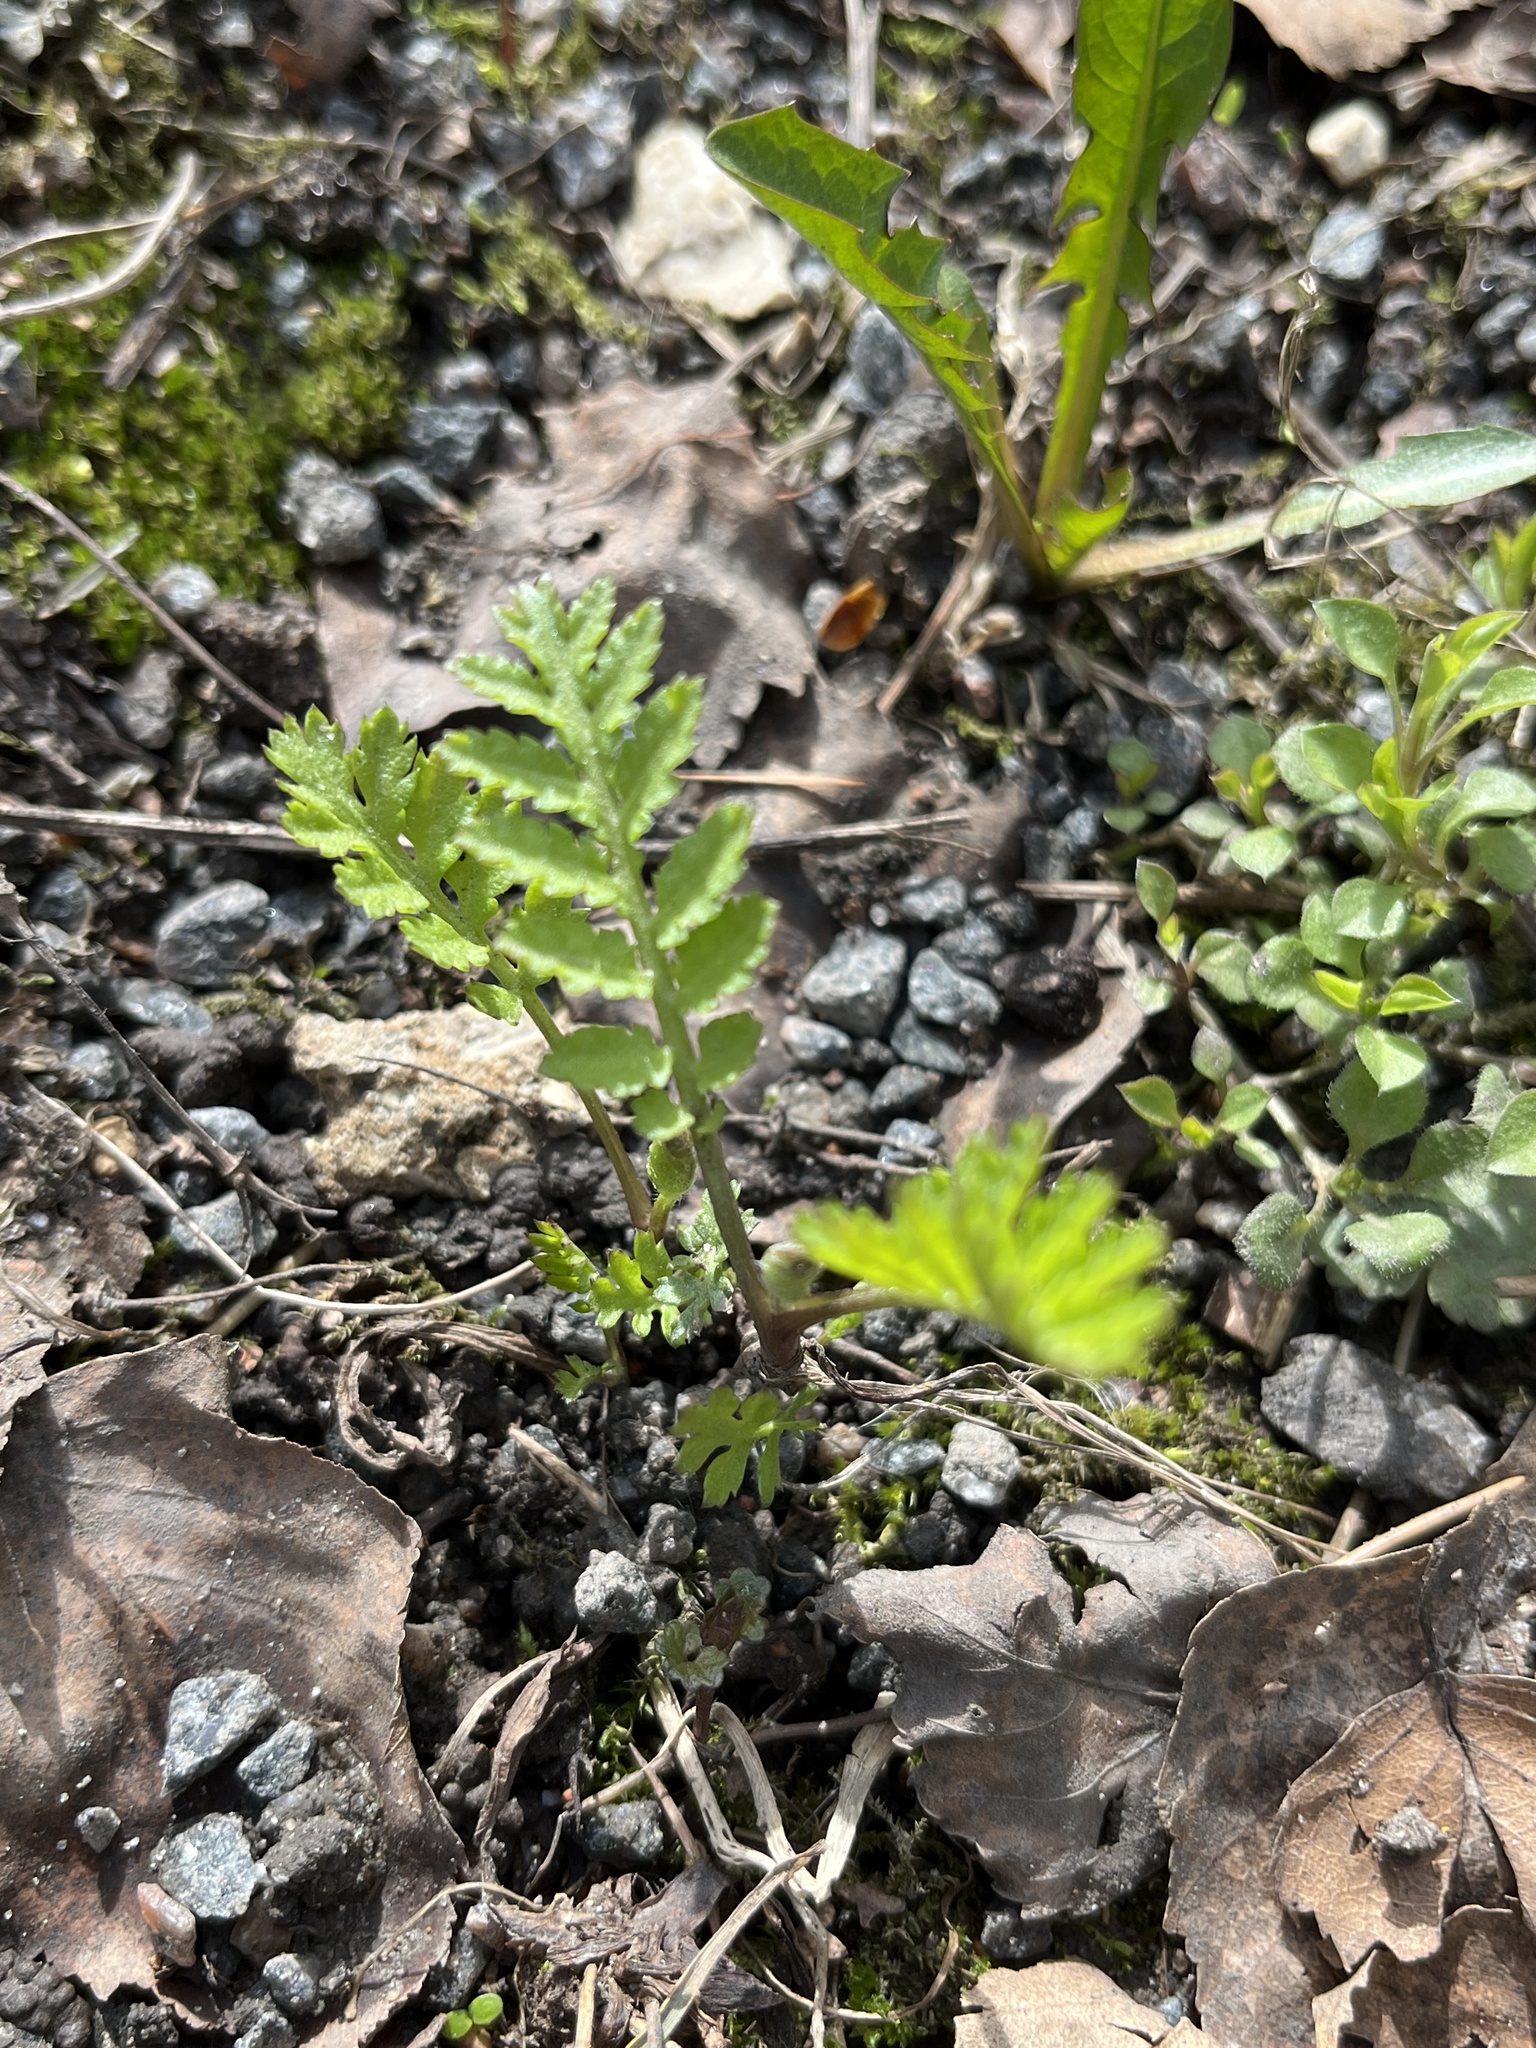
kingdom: Plantae
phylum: Tracheophyta
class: Magnoliopsida
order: Asterales
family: Asteraceae
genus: Tanacetum
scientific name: Tanacetum vulgare
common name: Common tansy
